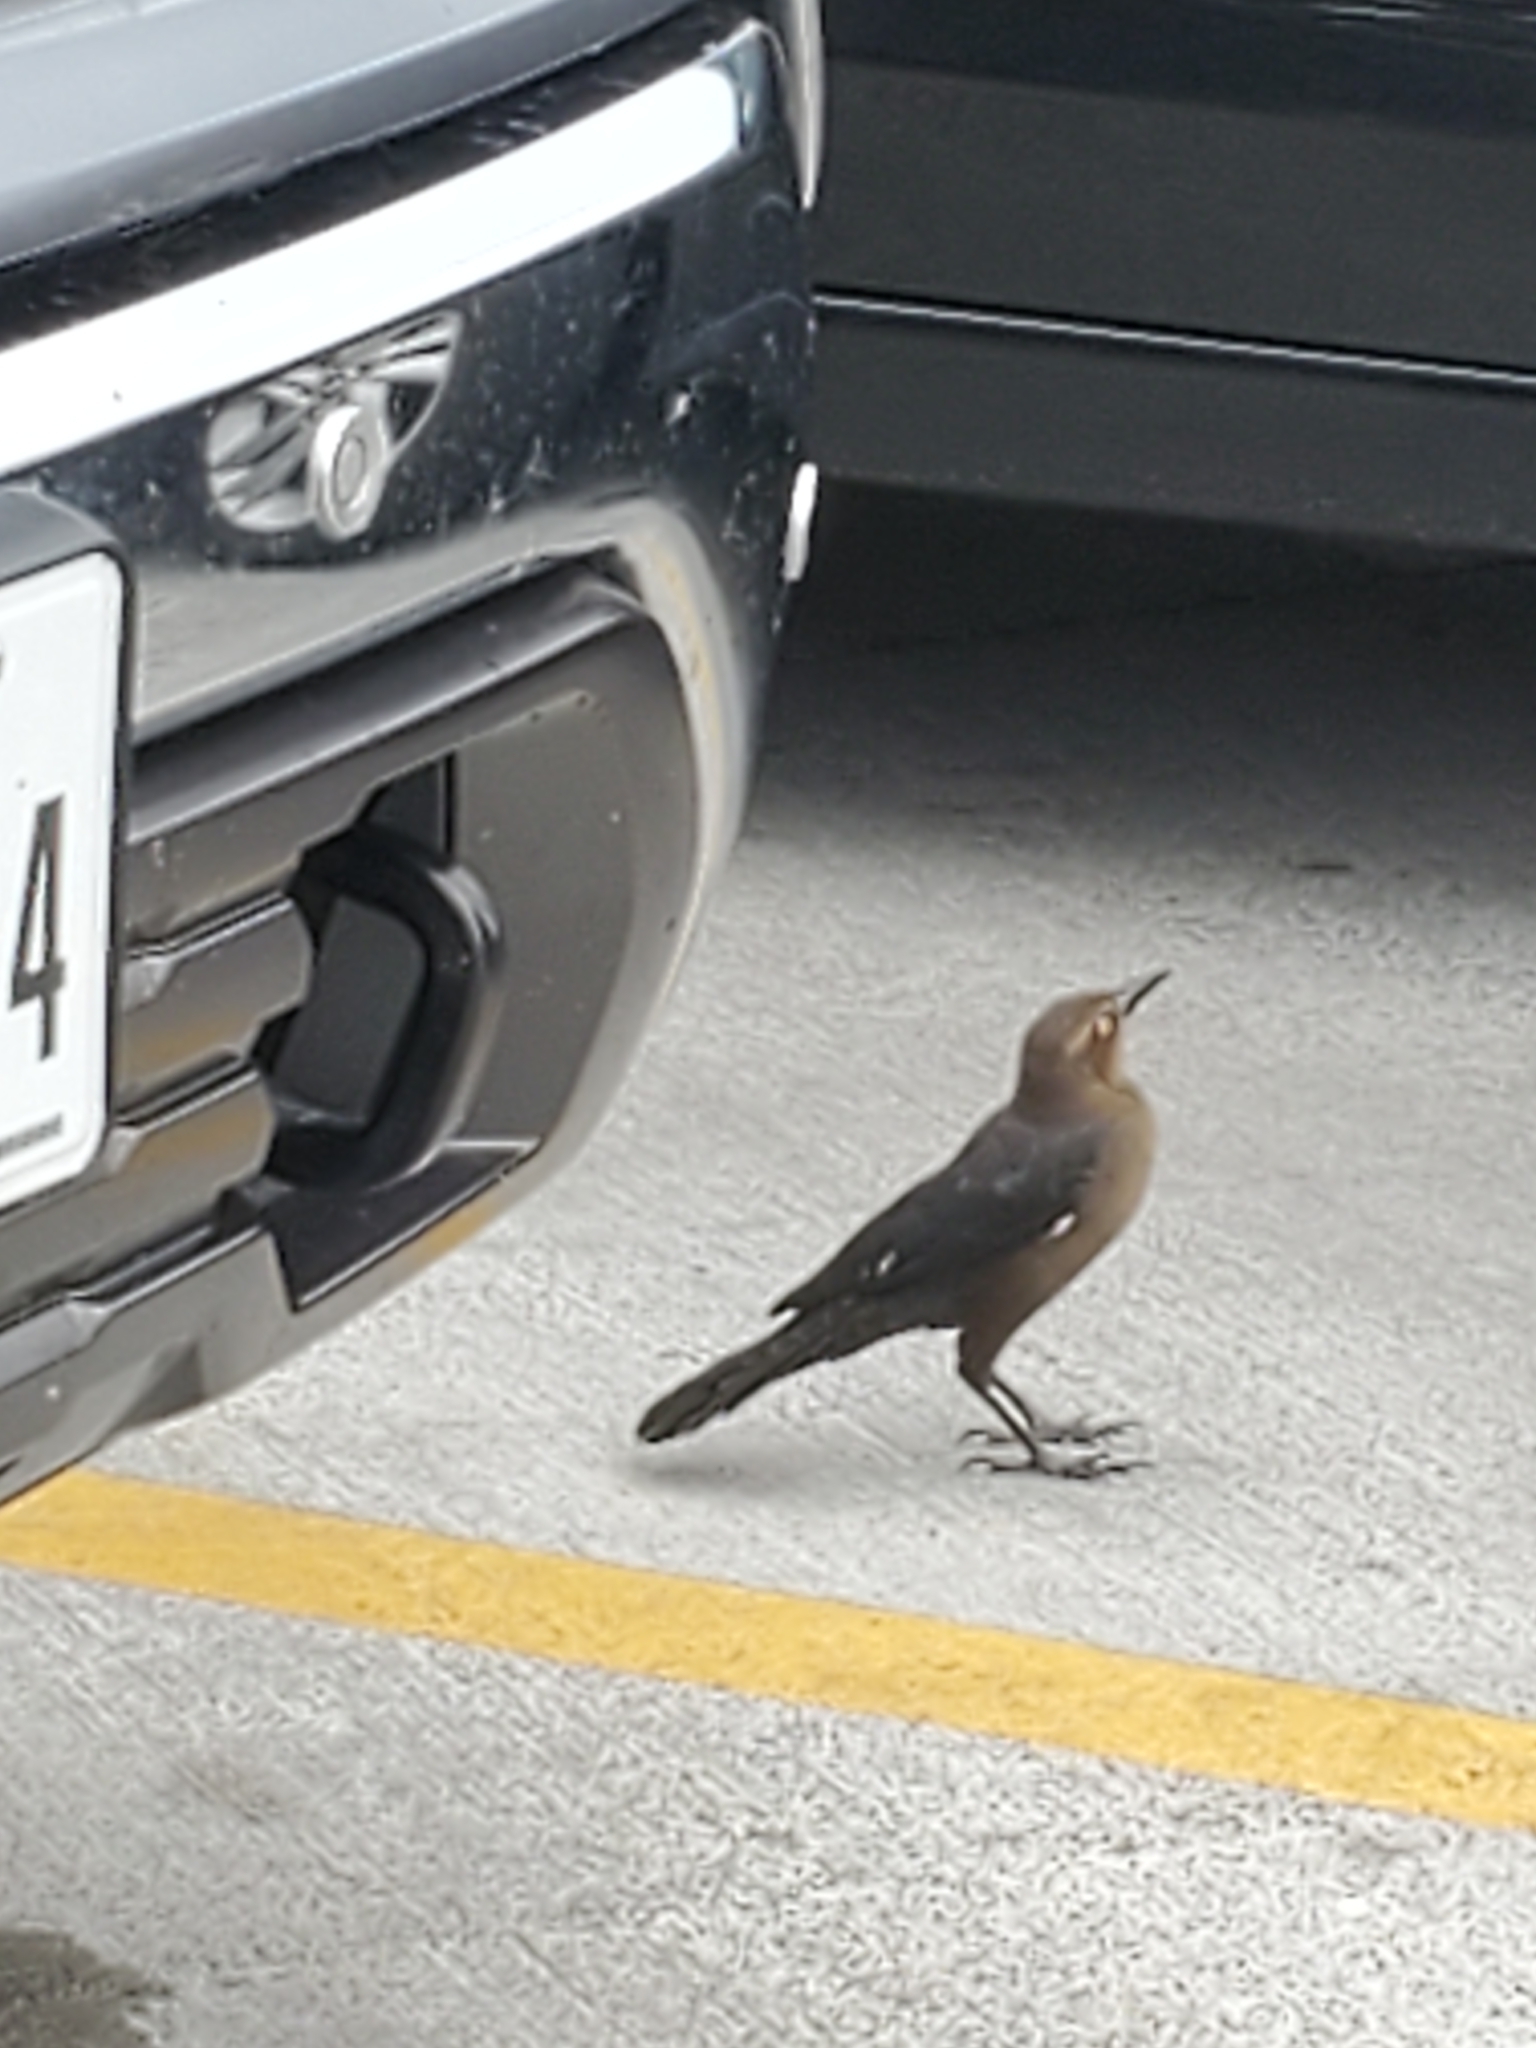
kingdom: Animalia
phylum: Chordata
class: Aves
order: Passeriformes
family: Icteridae
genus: Quiscalus
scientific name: Quiscalus mexicanus
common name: Great-tailed grackle
